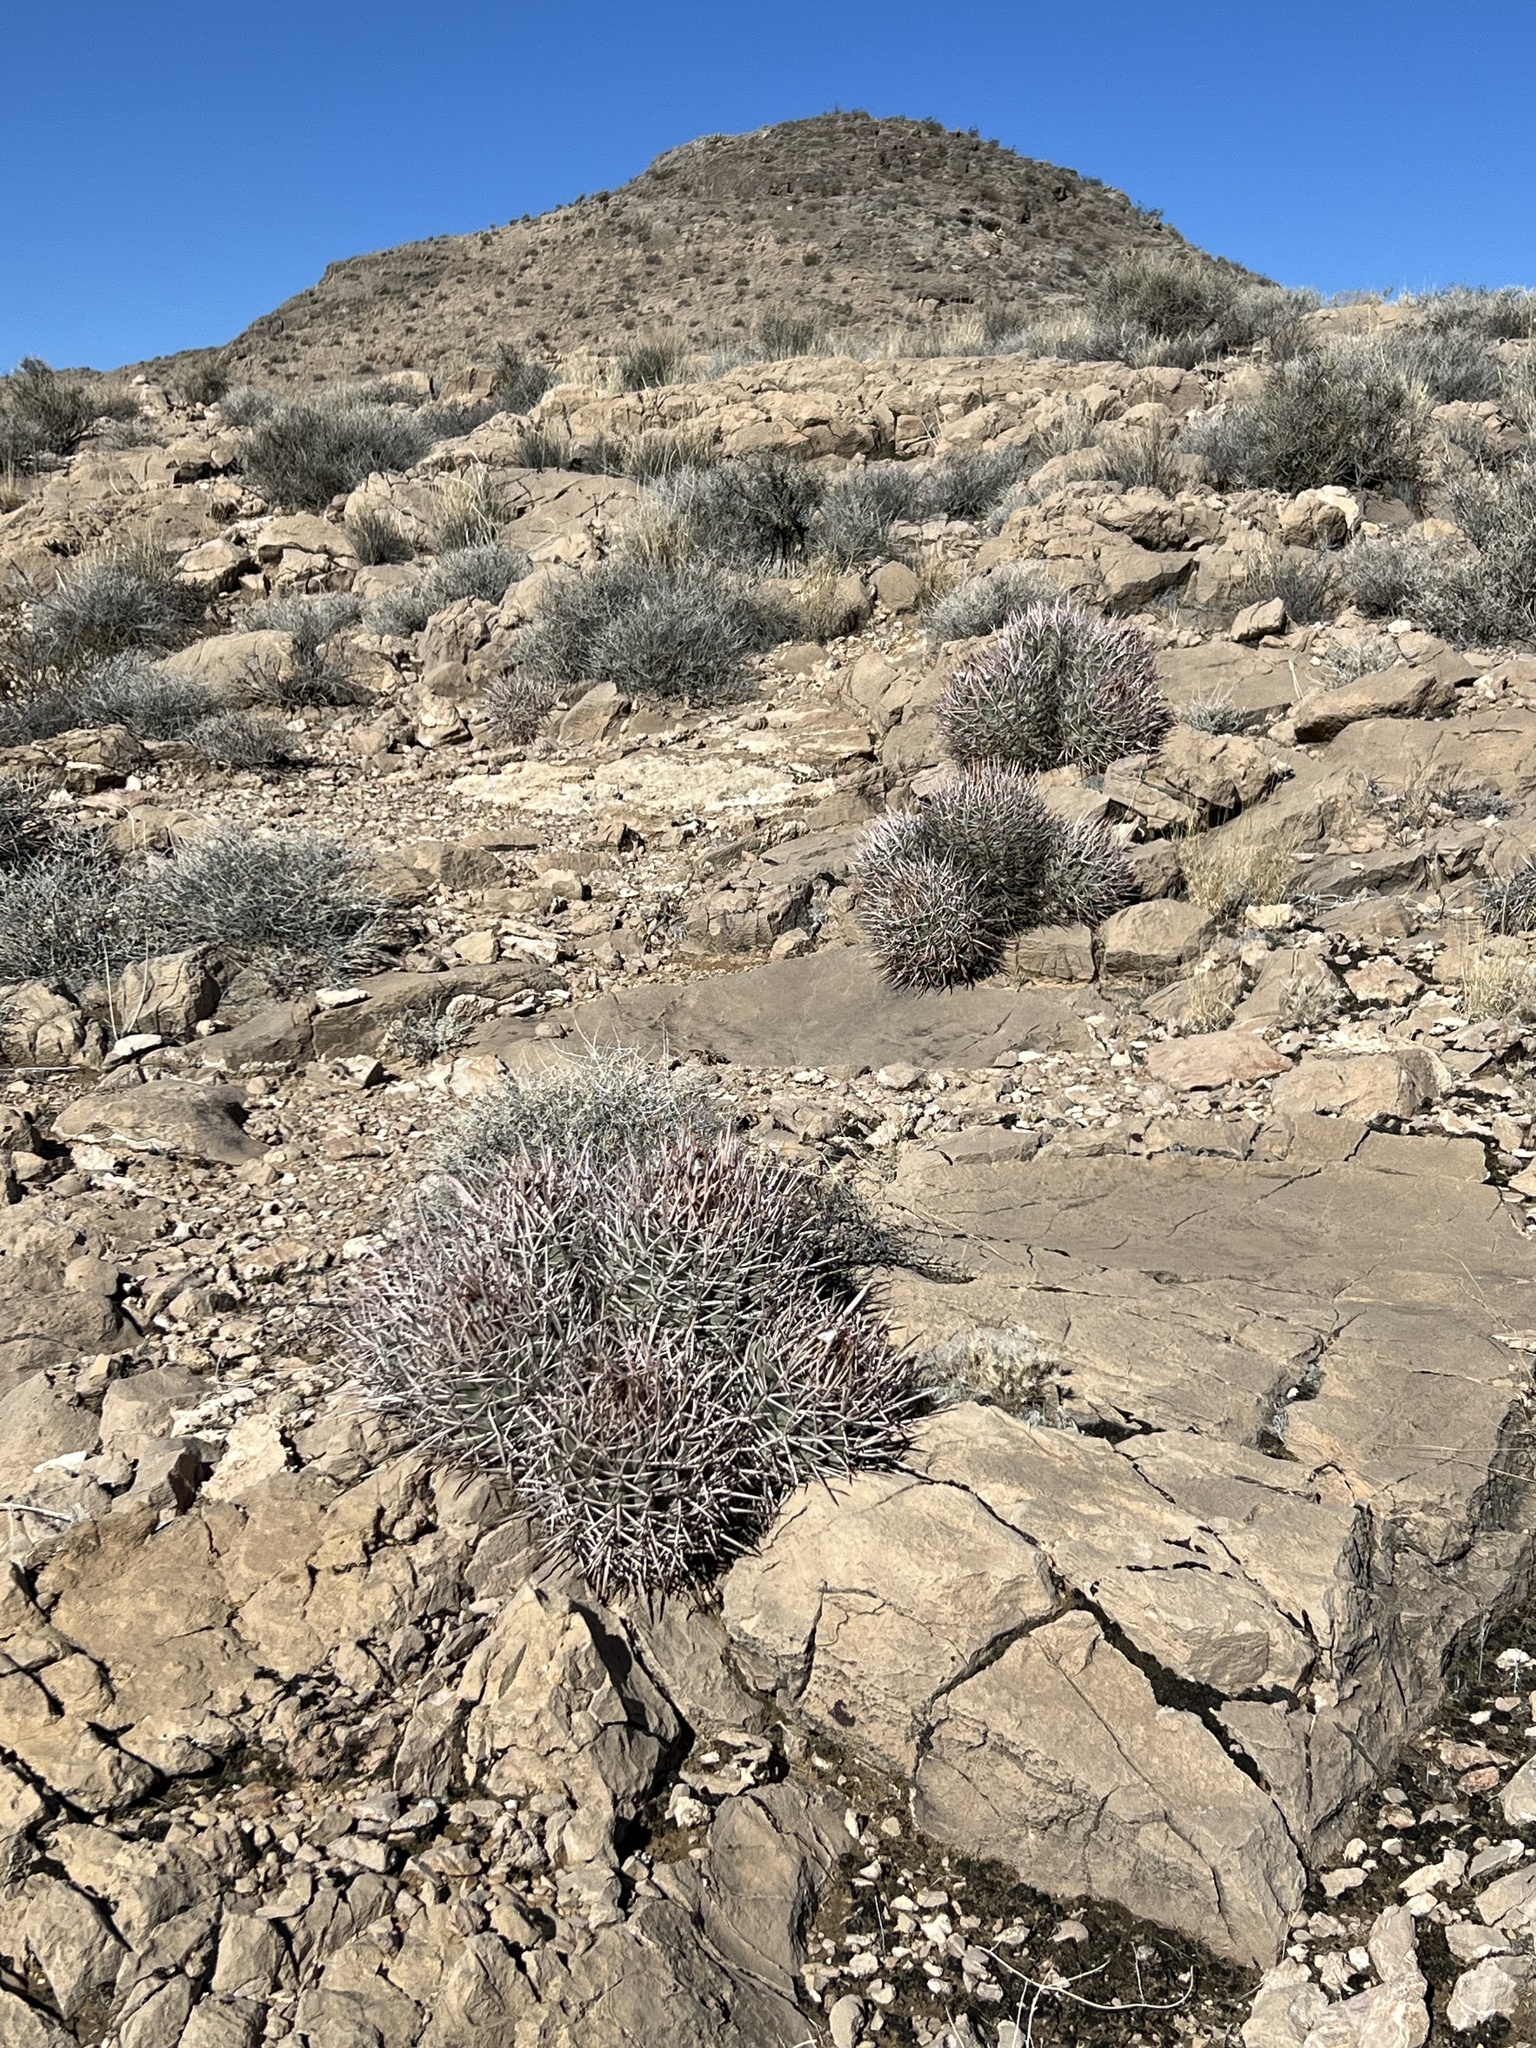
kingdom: Plantae
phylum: Tracheophyta
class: Magnoliopsida
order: Caryophyllales
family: Cactaceae
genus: Echinocactus
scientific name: Echinocactus polycephalus
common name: Cottontop cactus
